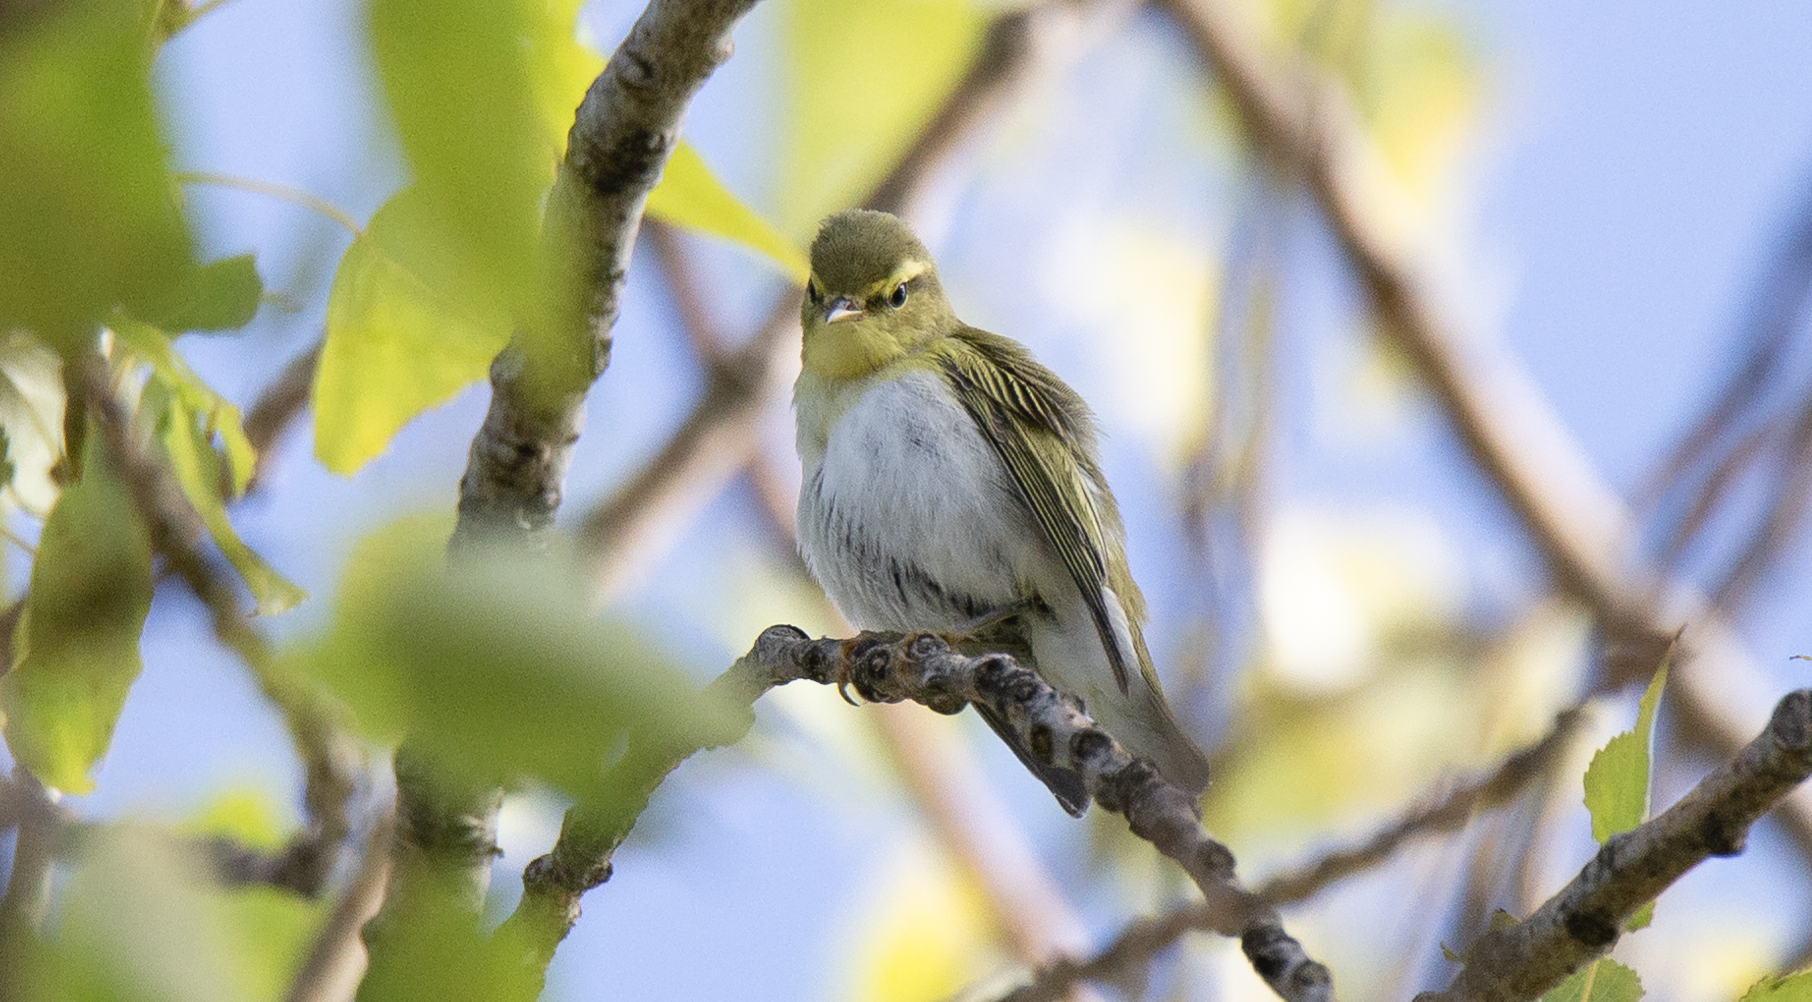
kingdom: Animalia
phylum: Chordata
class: Aves
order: Passeriformes
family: Phylloscopidae
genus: Phylloscopus
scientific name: Phylloscopus sibillatrix
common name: Wood warbler
